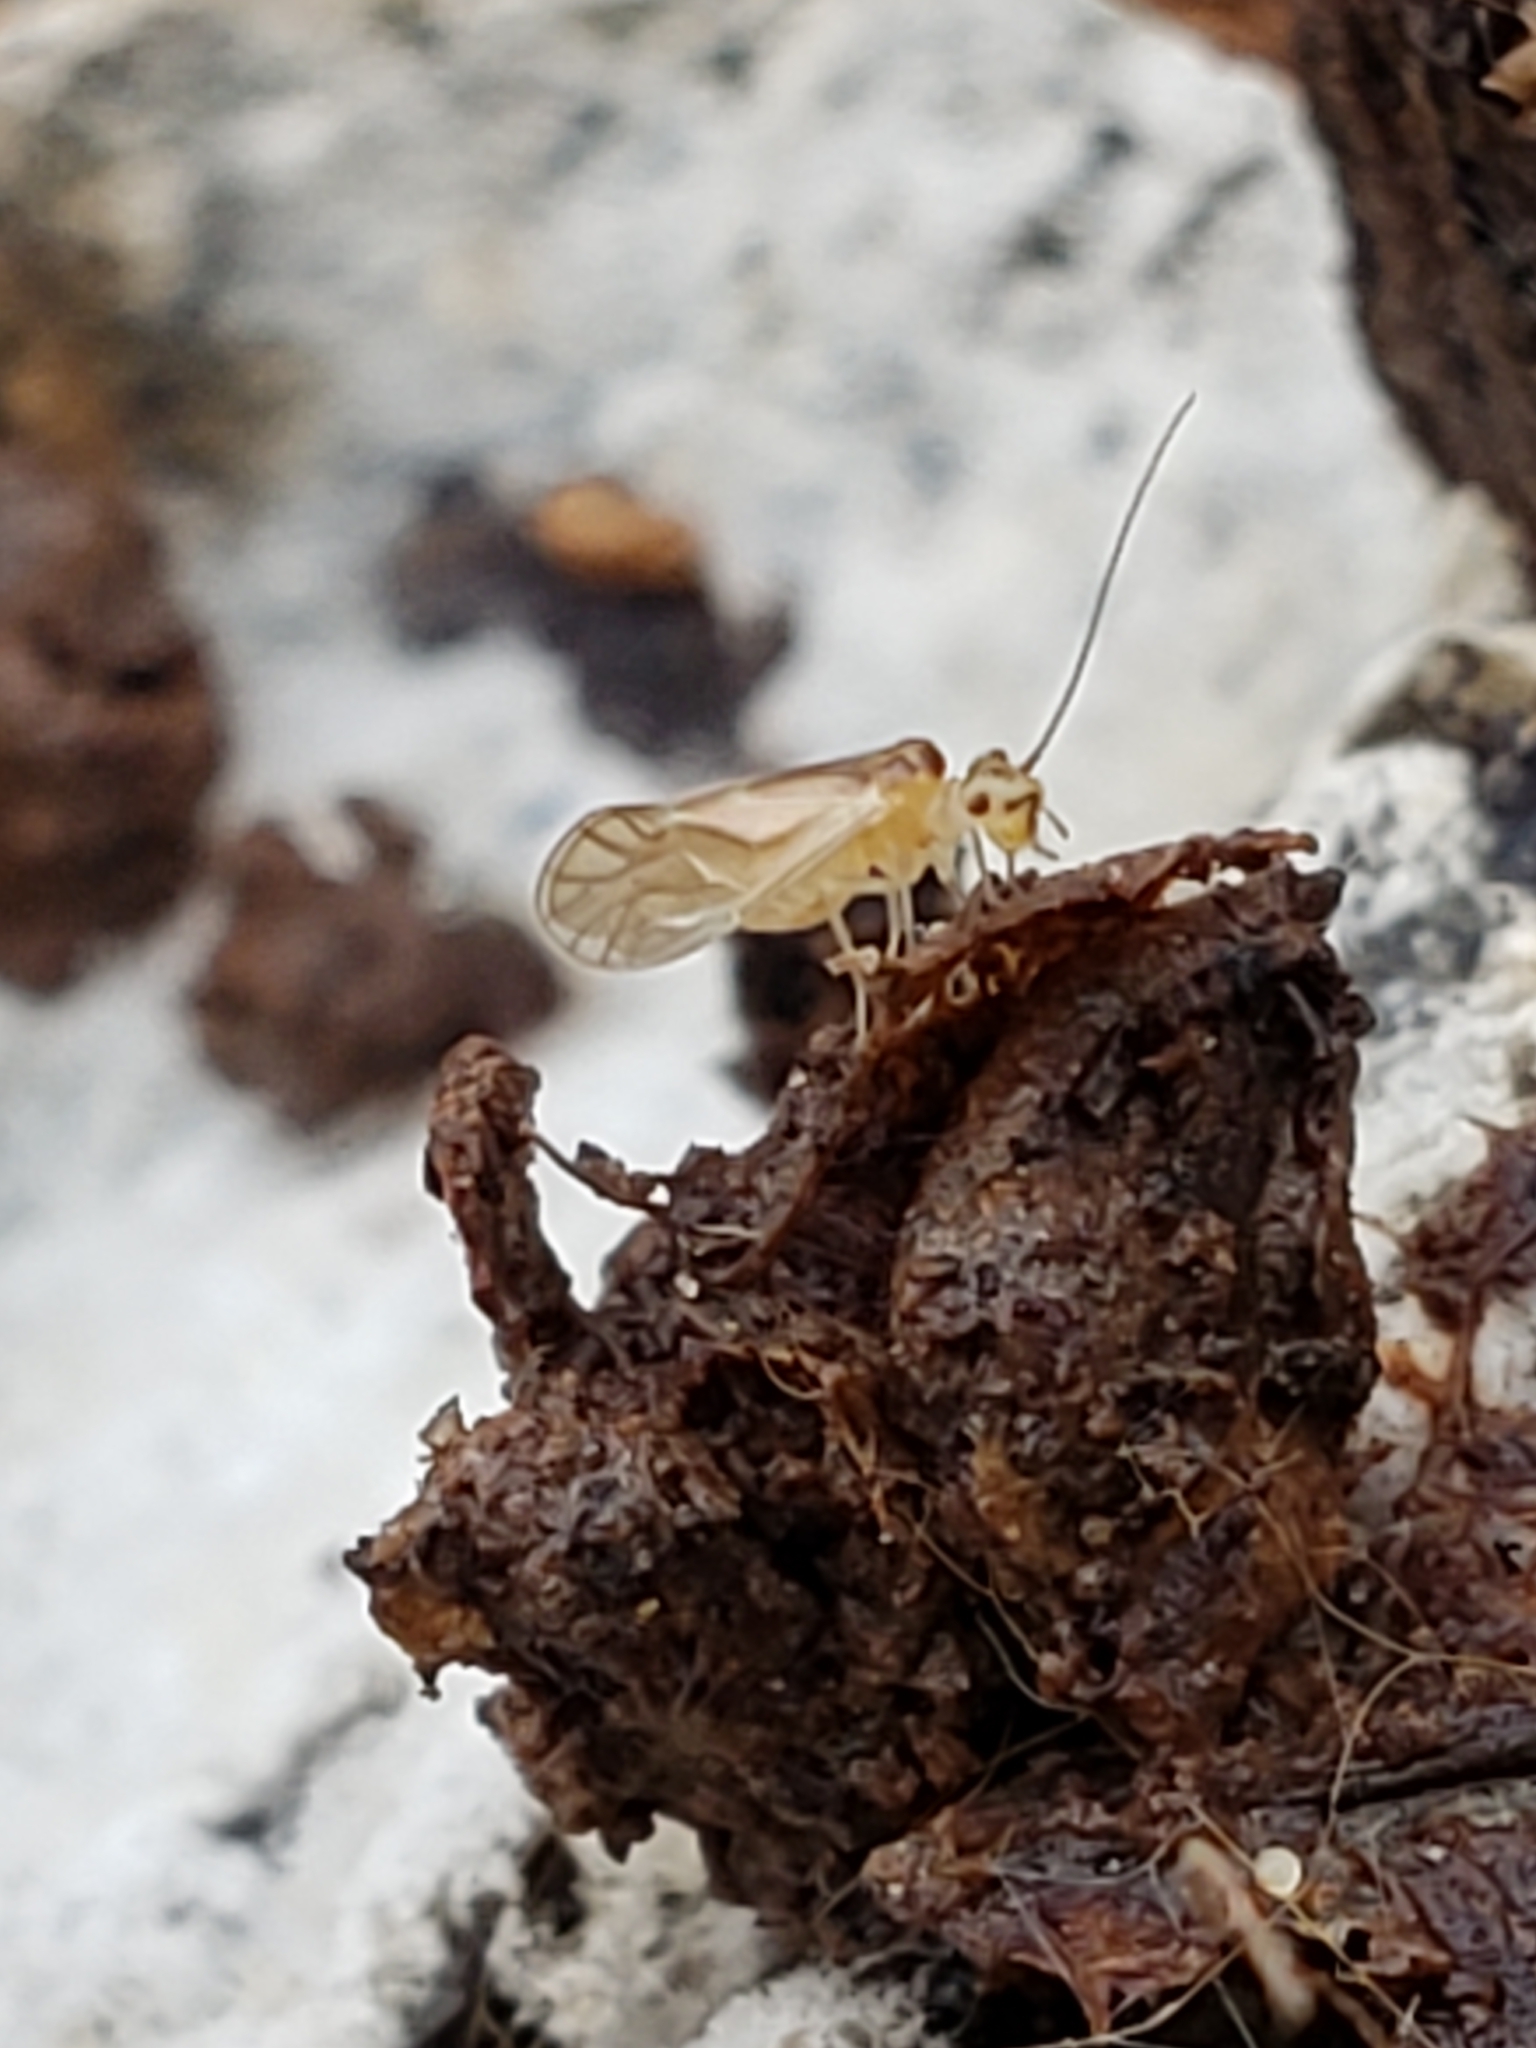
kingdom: Animalia
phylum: Arthropoda
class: Insecta
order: Psocodea
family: Caeciliusidae
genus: Valenzuela
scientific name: Valenzuela flavidus
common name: Yellow barklouse
